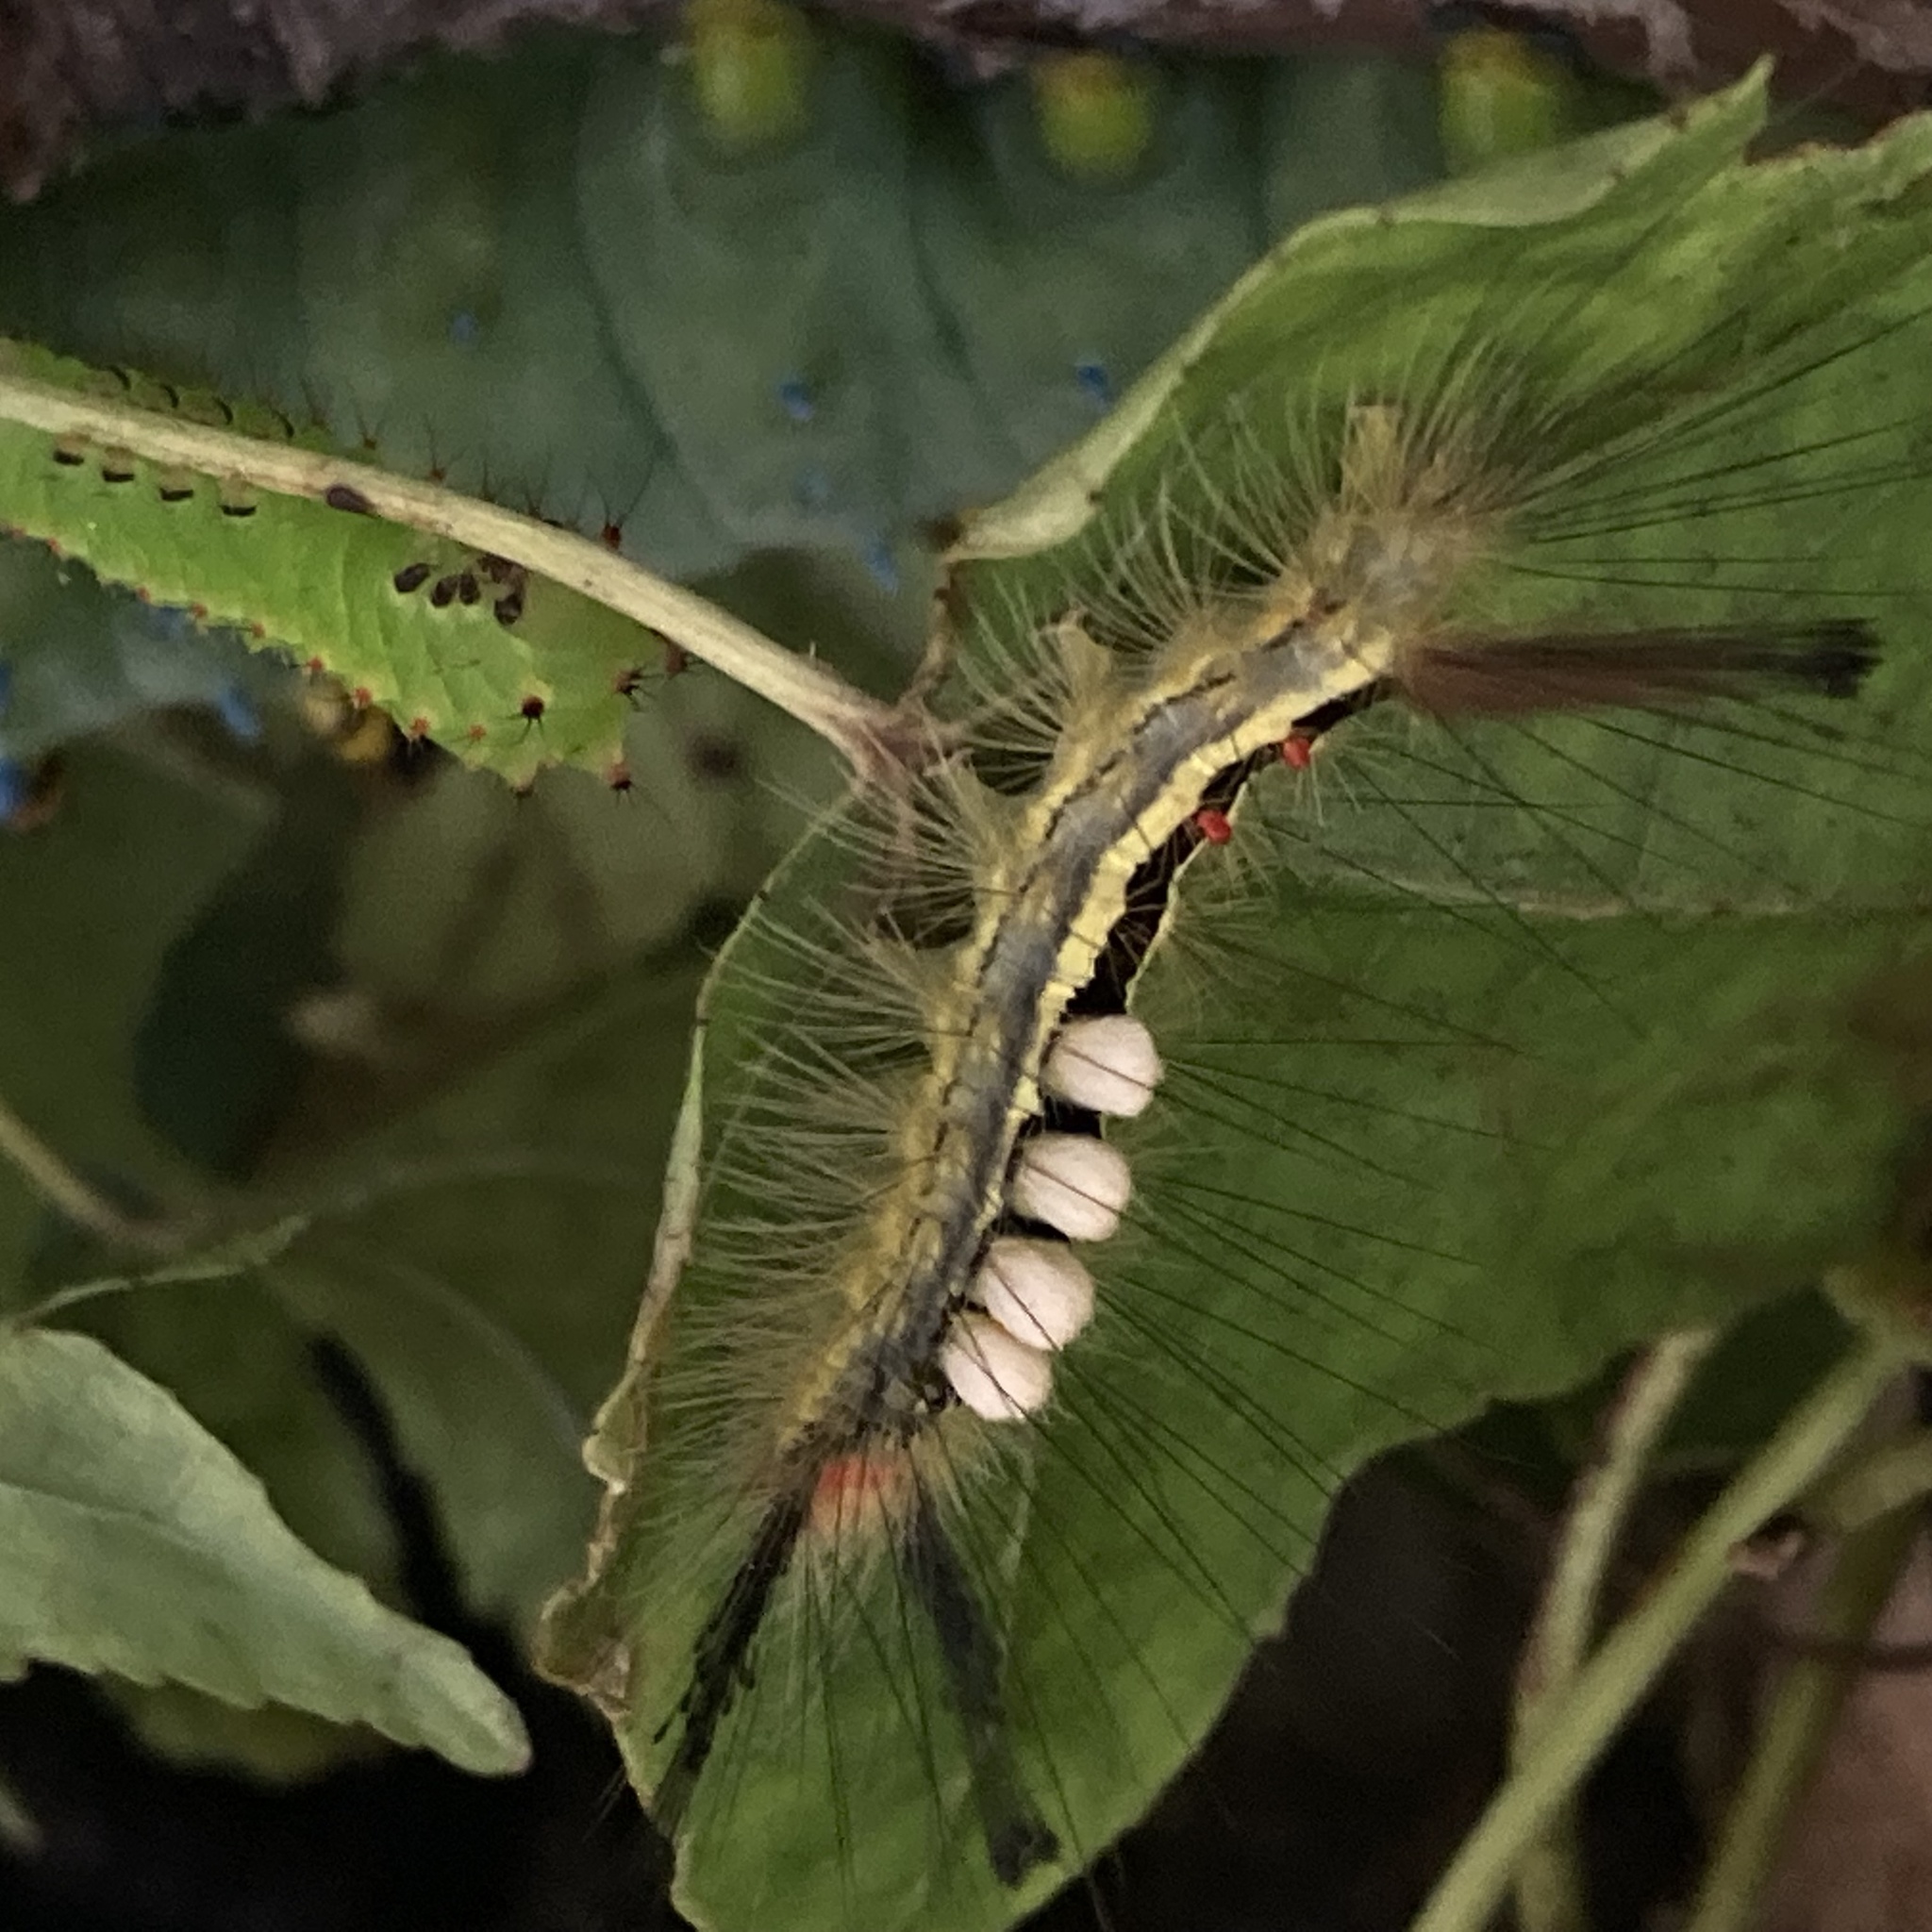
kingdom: Animalia
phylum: Arthropoda
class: Insecta
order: Lepidoptera
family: Erebidae
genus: Orgyia
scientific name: Orgyia leucostigma
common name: White-marked tussock moth
